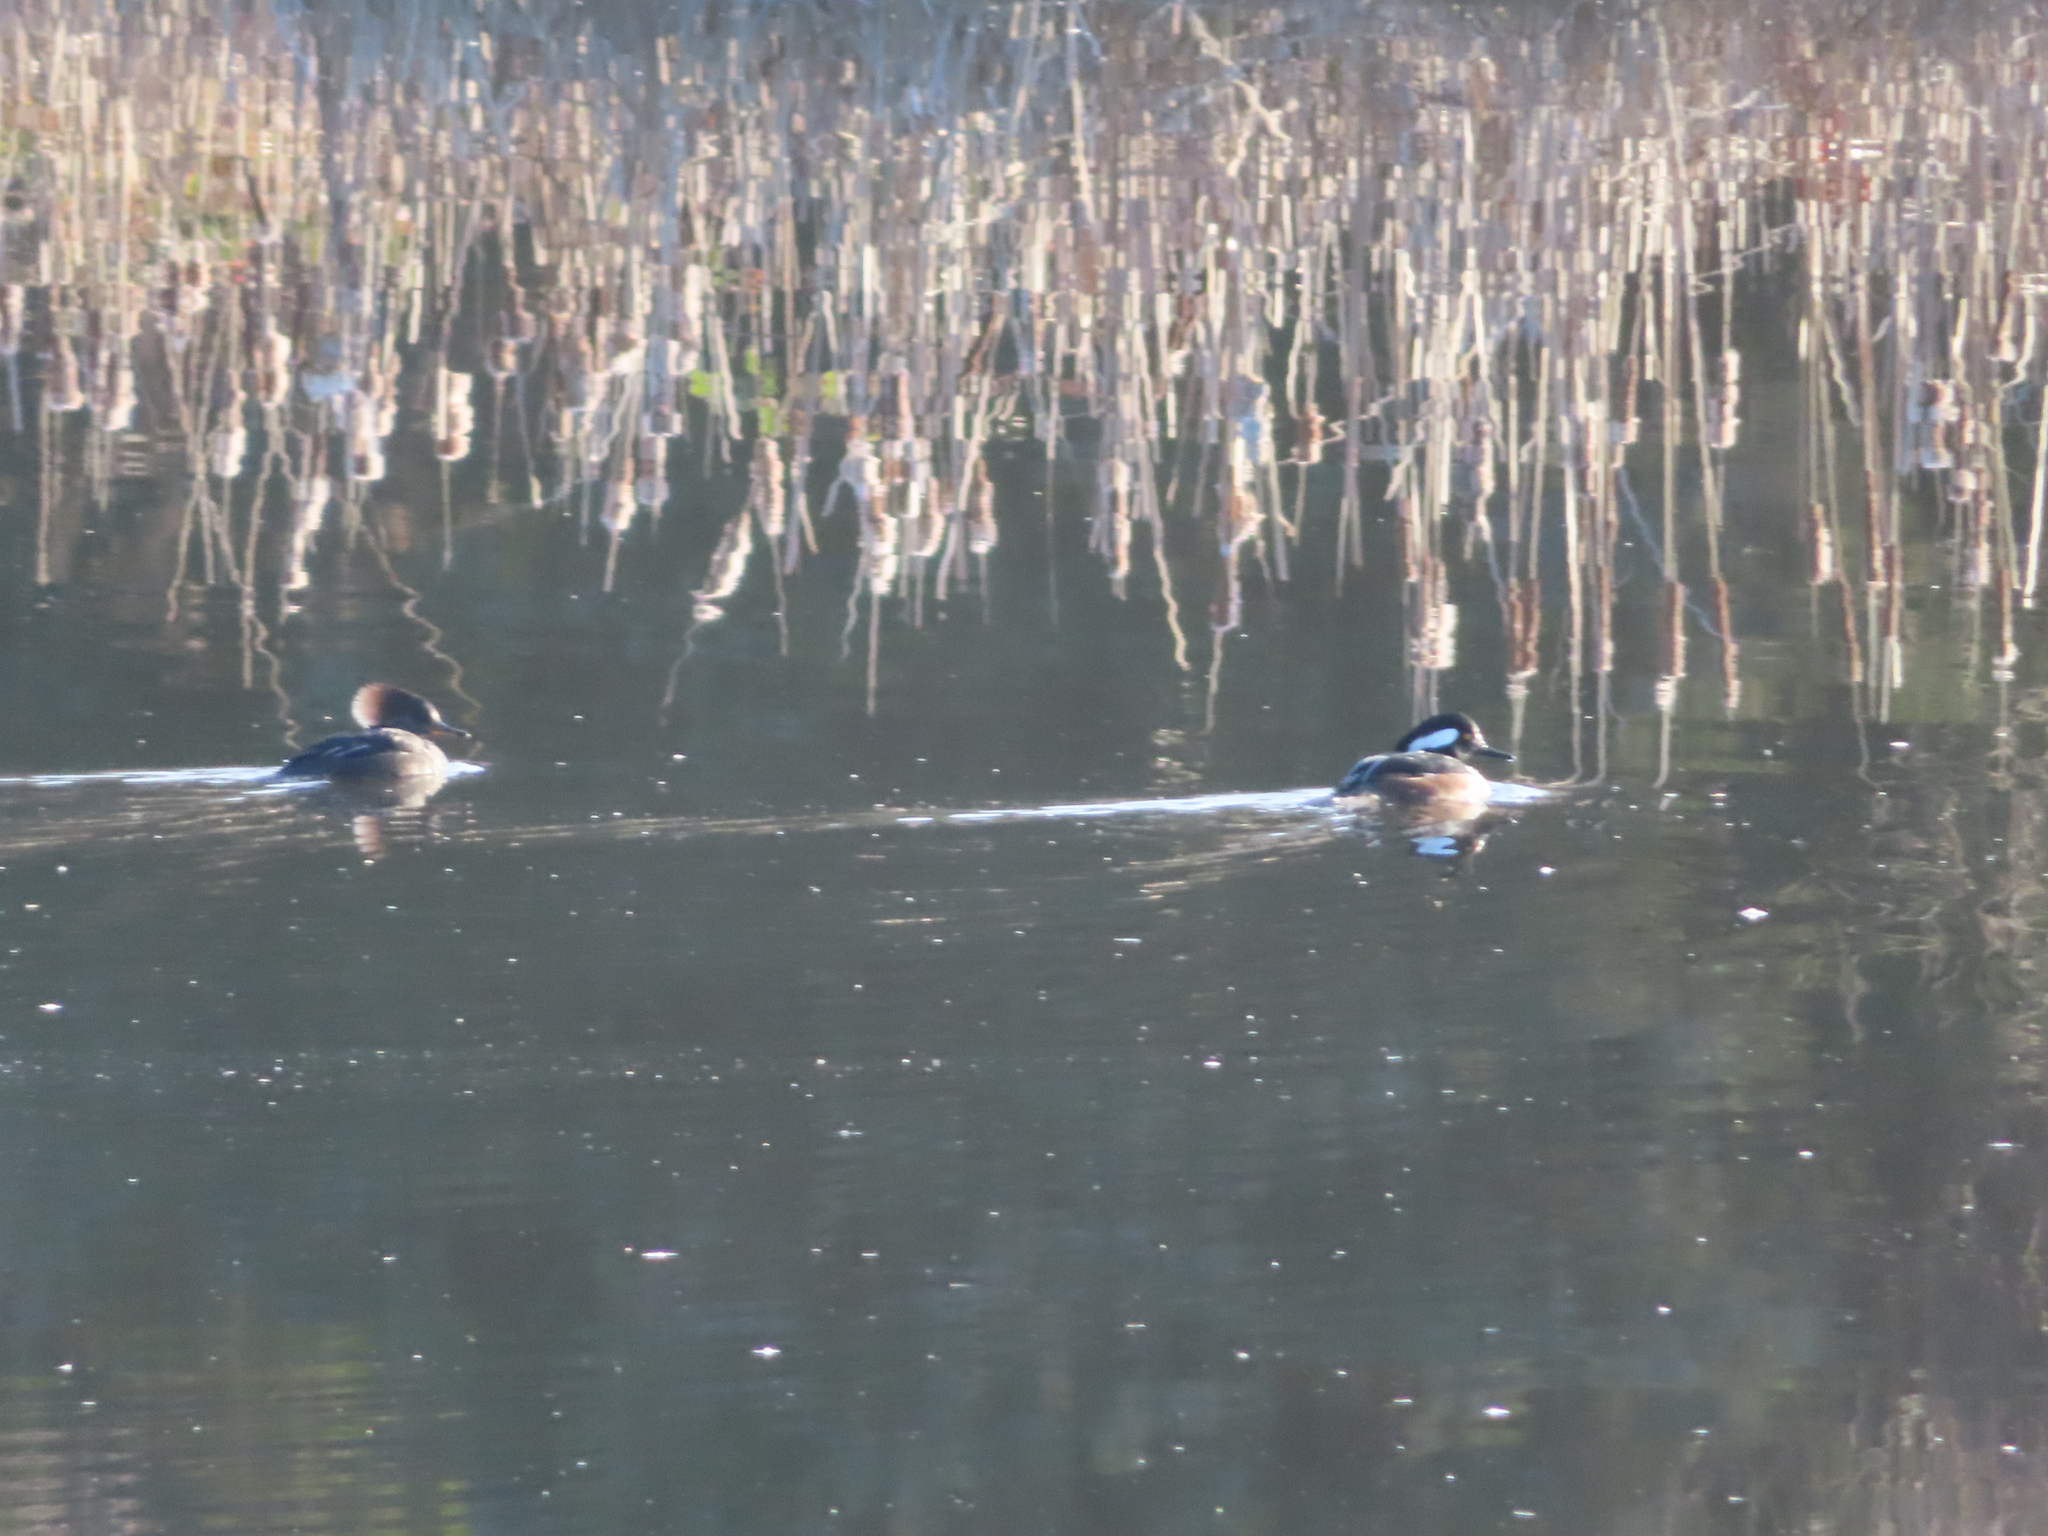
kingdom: Animalia
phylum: Chordata
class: Aves
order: Anseriformes
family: Anatidae
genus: Lophodytes
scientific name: Lophodytes cucullatus
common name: Hooded merganser
